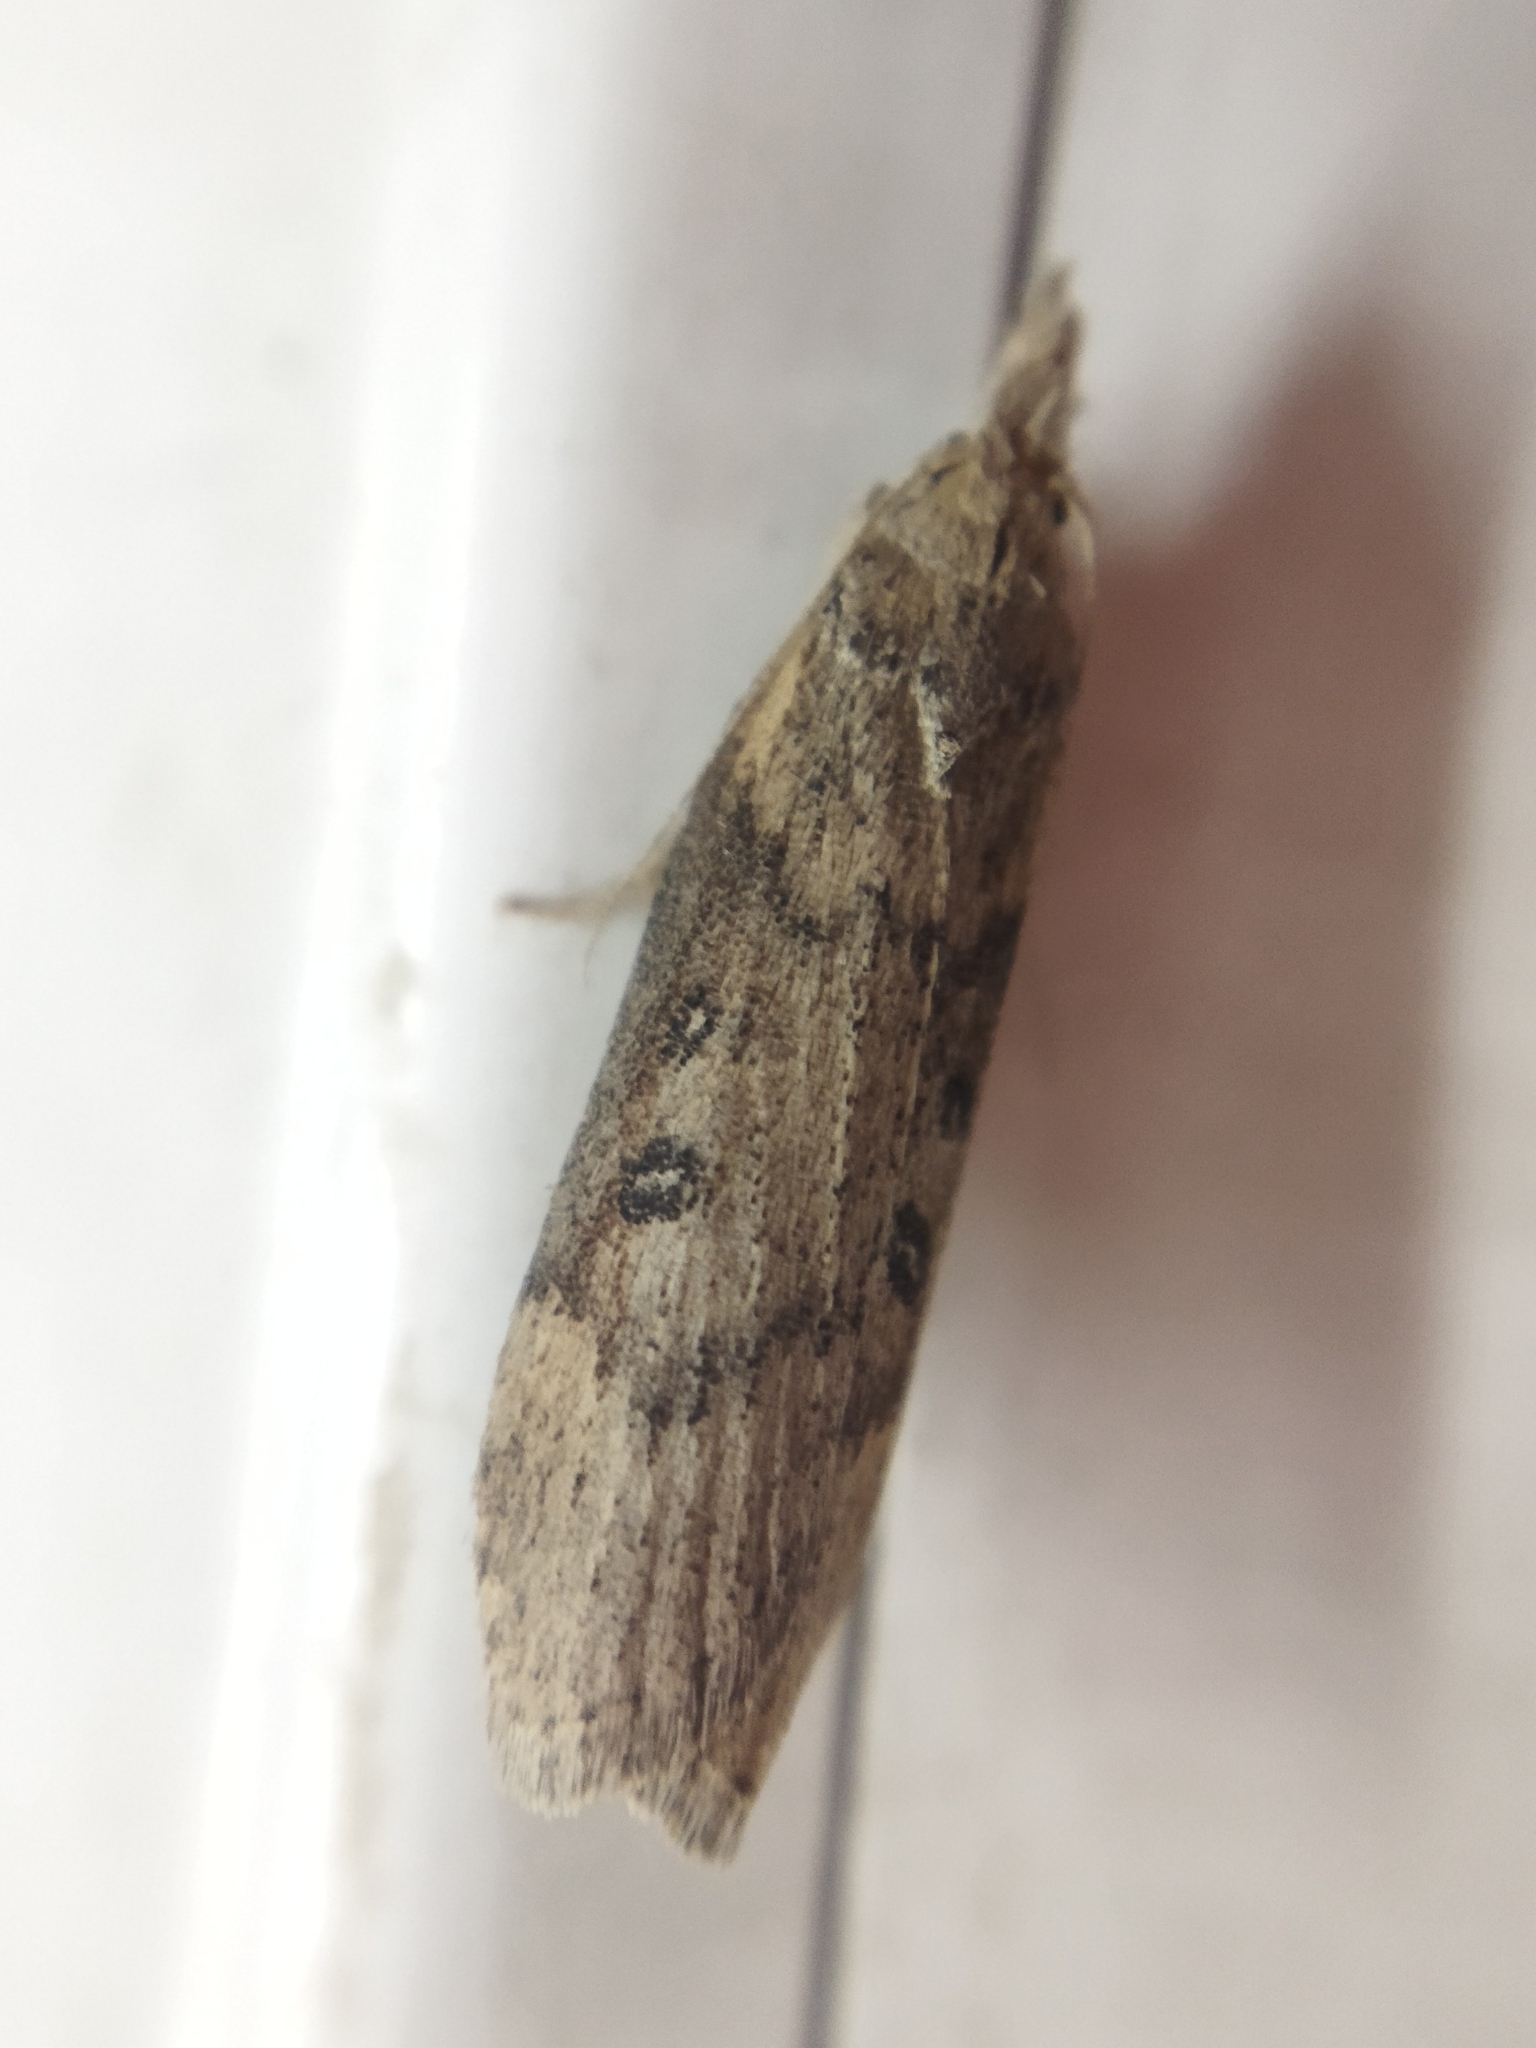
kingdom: Animalia
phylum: Arthropoda
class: Insecta
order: Lepidoptera
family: Pyralidae
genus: Lamoria
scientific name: Lamoria anella
